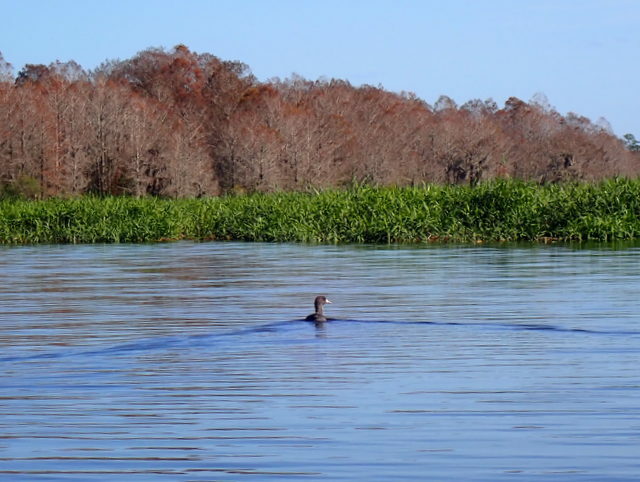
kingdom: Animalia
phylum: Chordata
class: Aves
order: Gruiformes
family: Rallidae
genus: Fulica
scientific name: Fulica americana
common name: American coot
